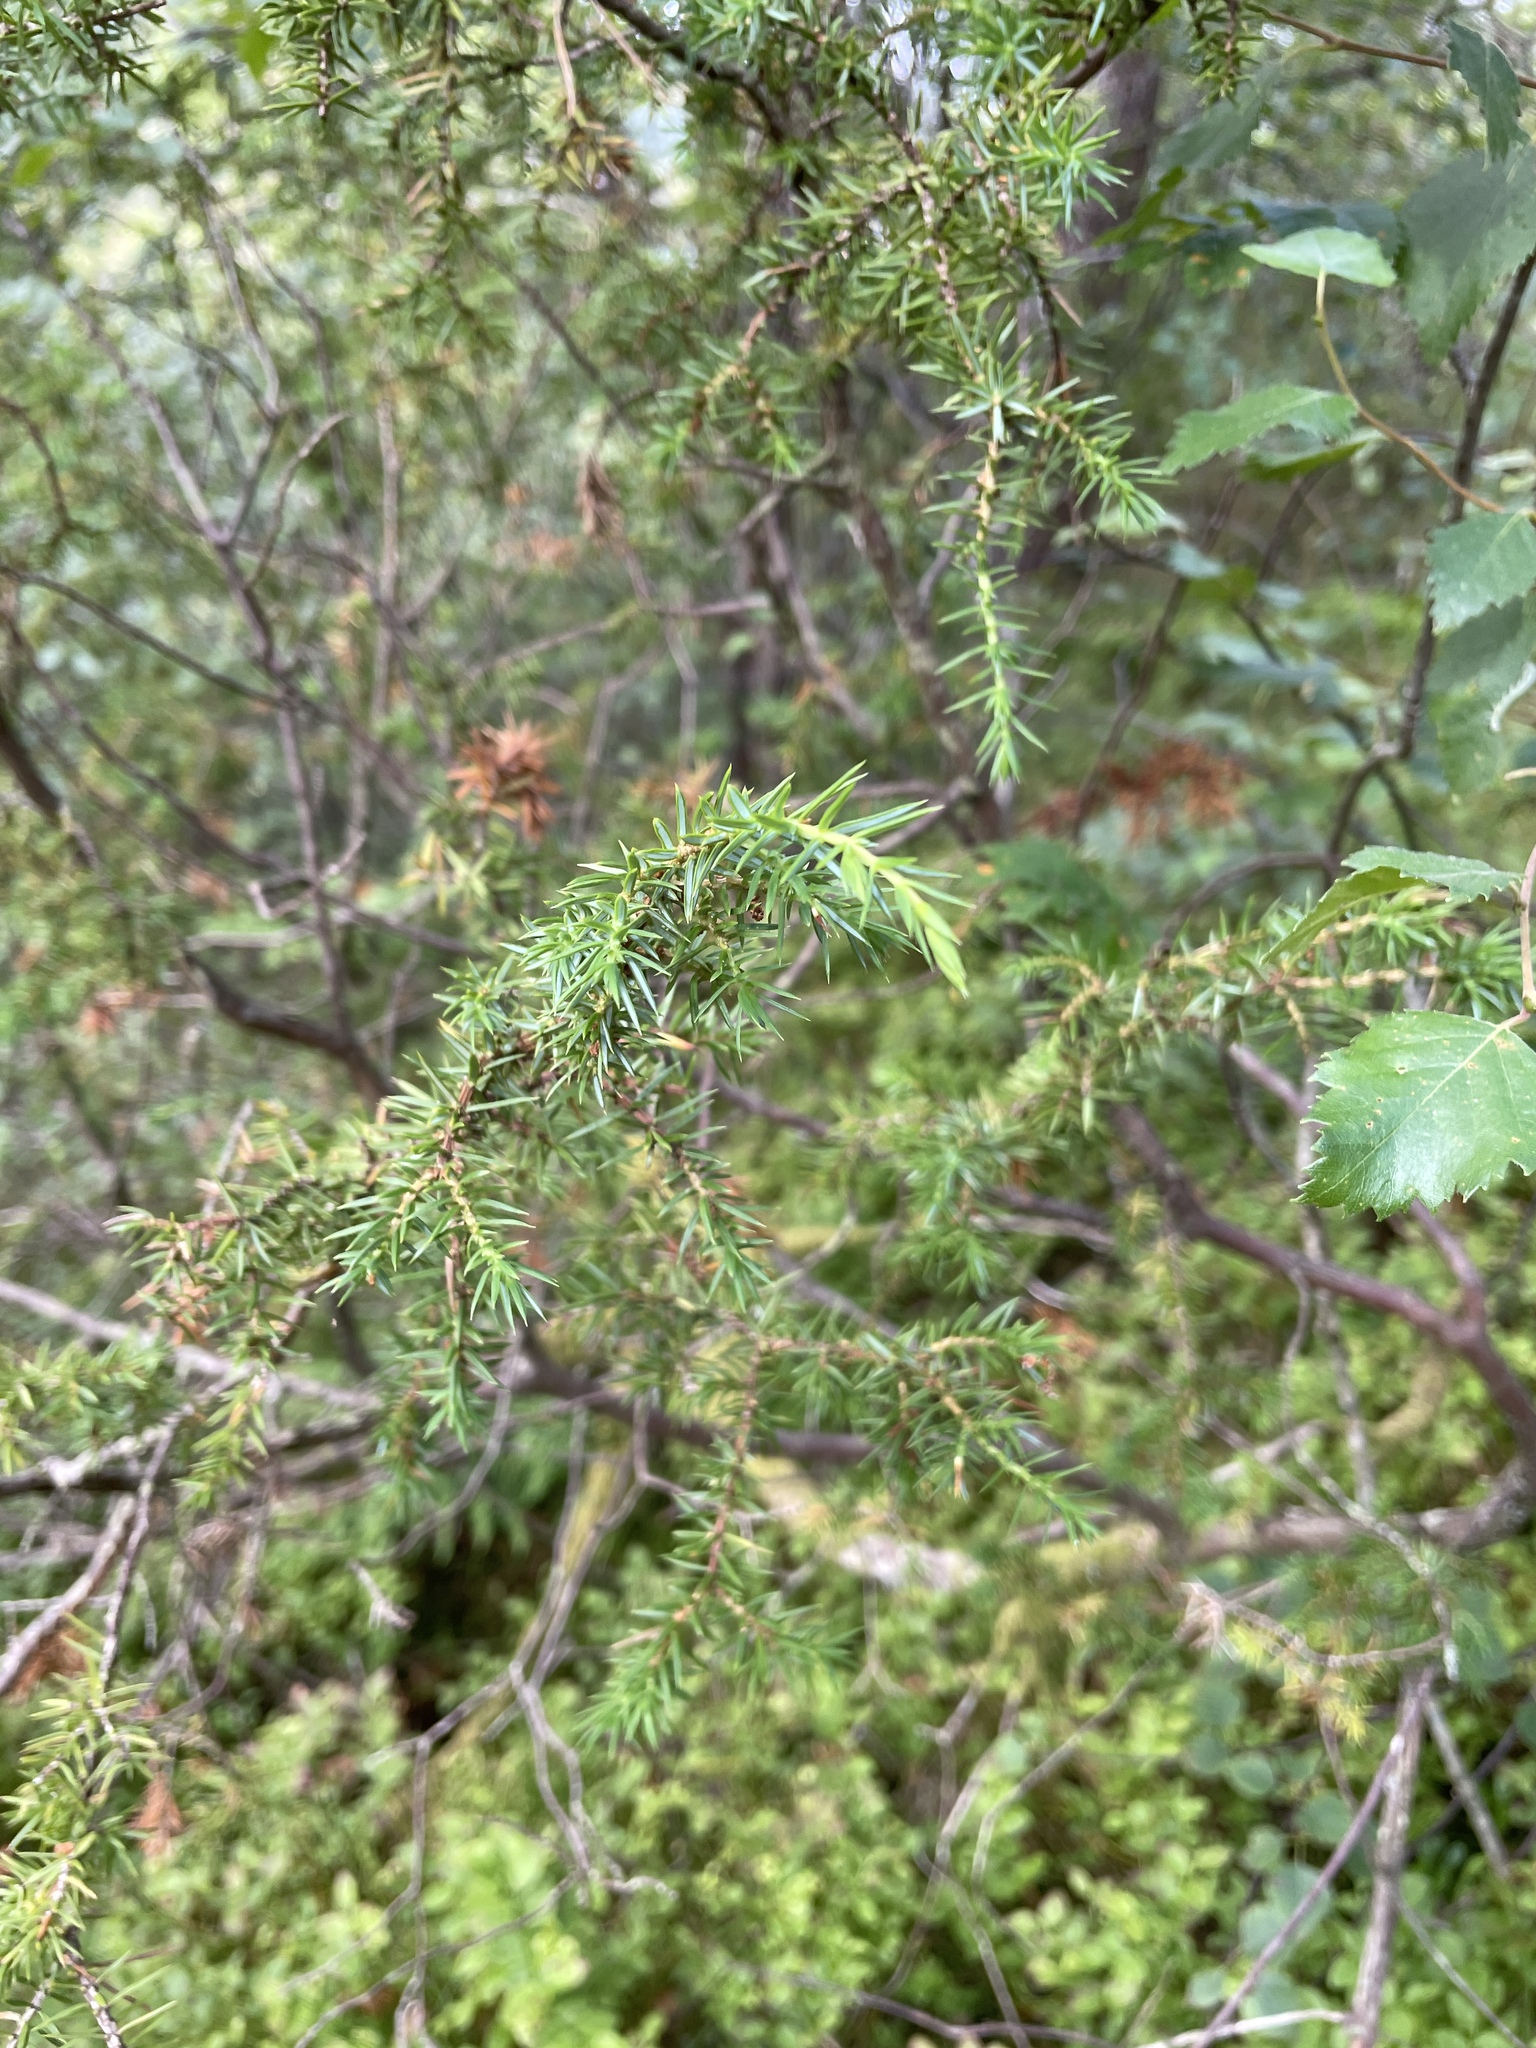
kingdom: Plantae
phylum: Tracheophyta
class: Pinopsida
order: Pinales
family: Cupressaceae
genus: Juniperus
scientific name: Juniperus communis
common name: Common juniper
